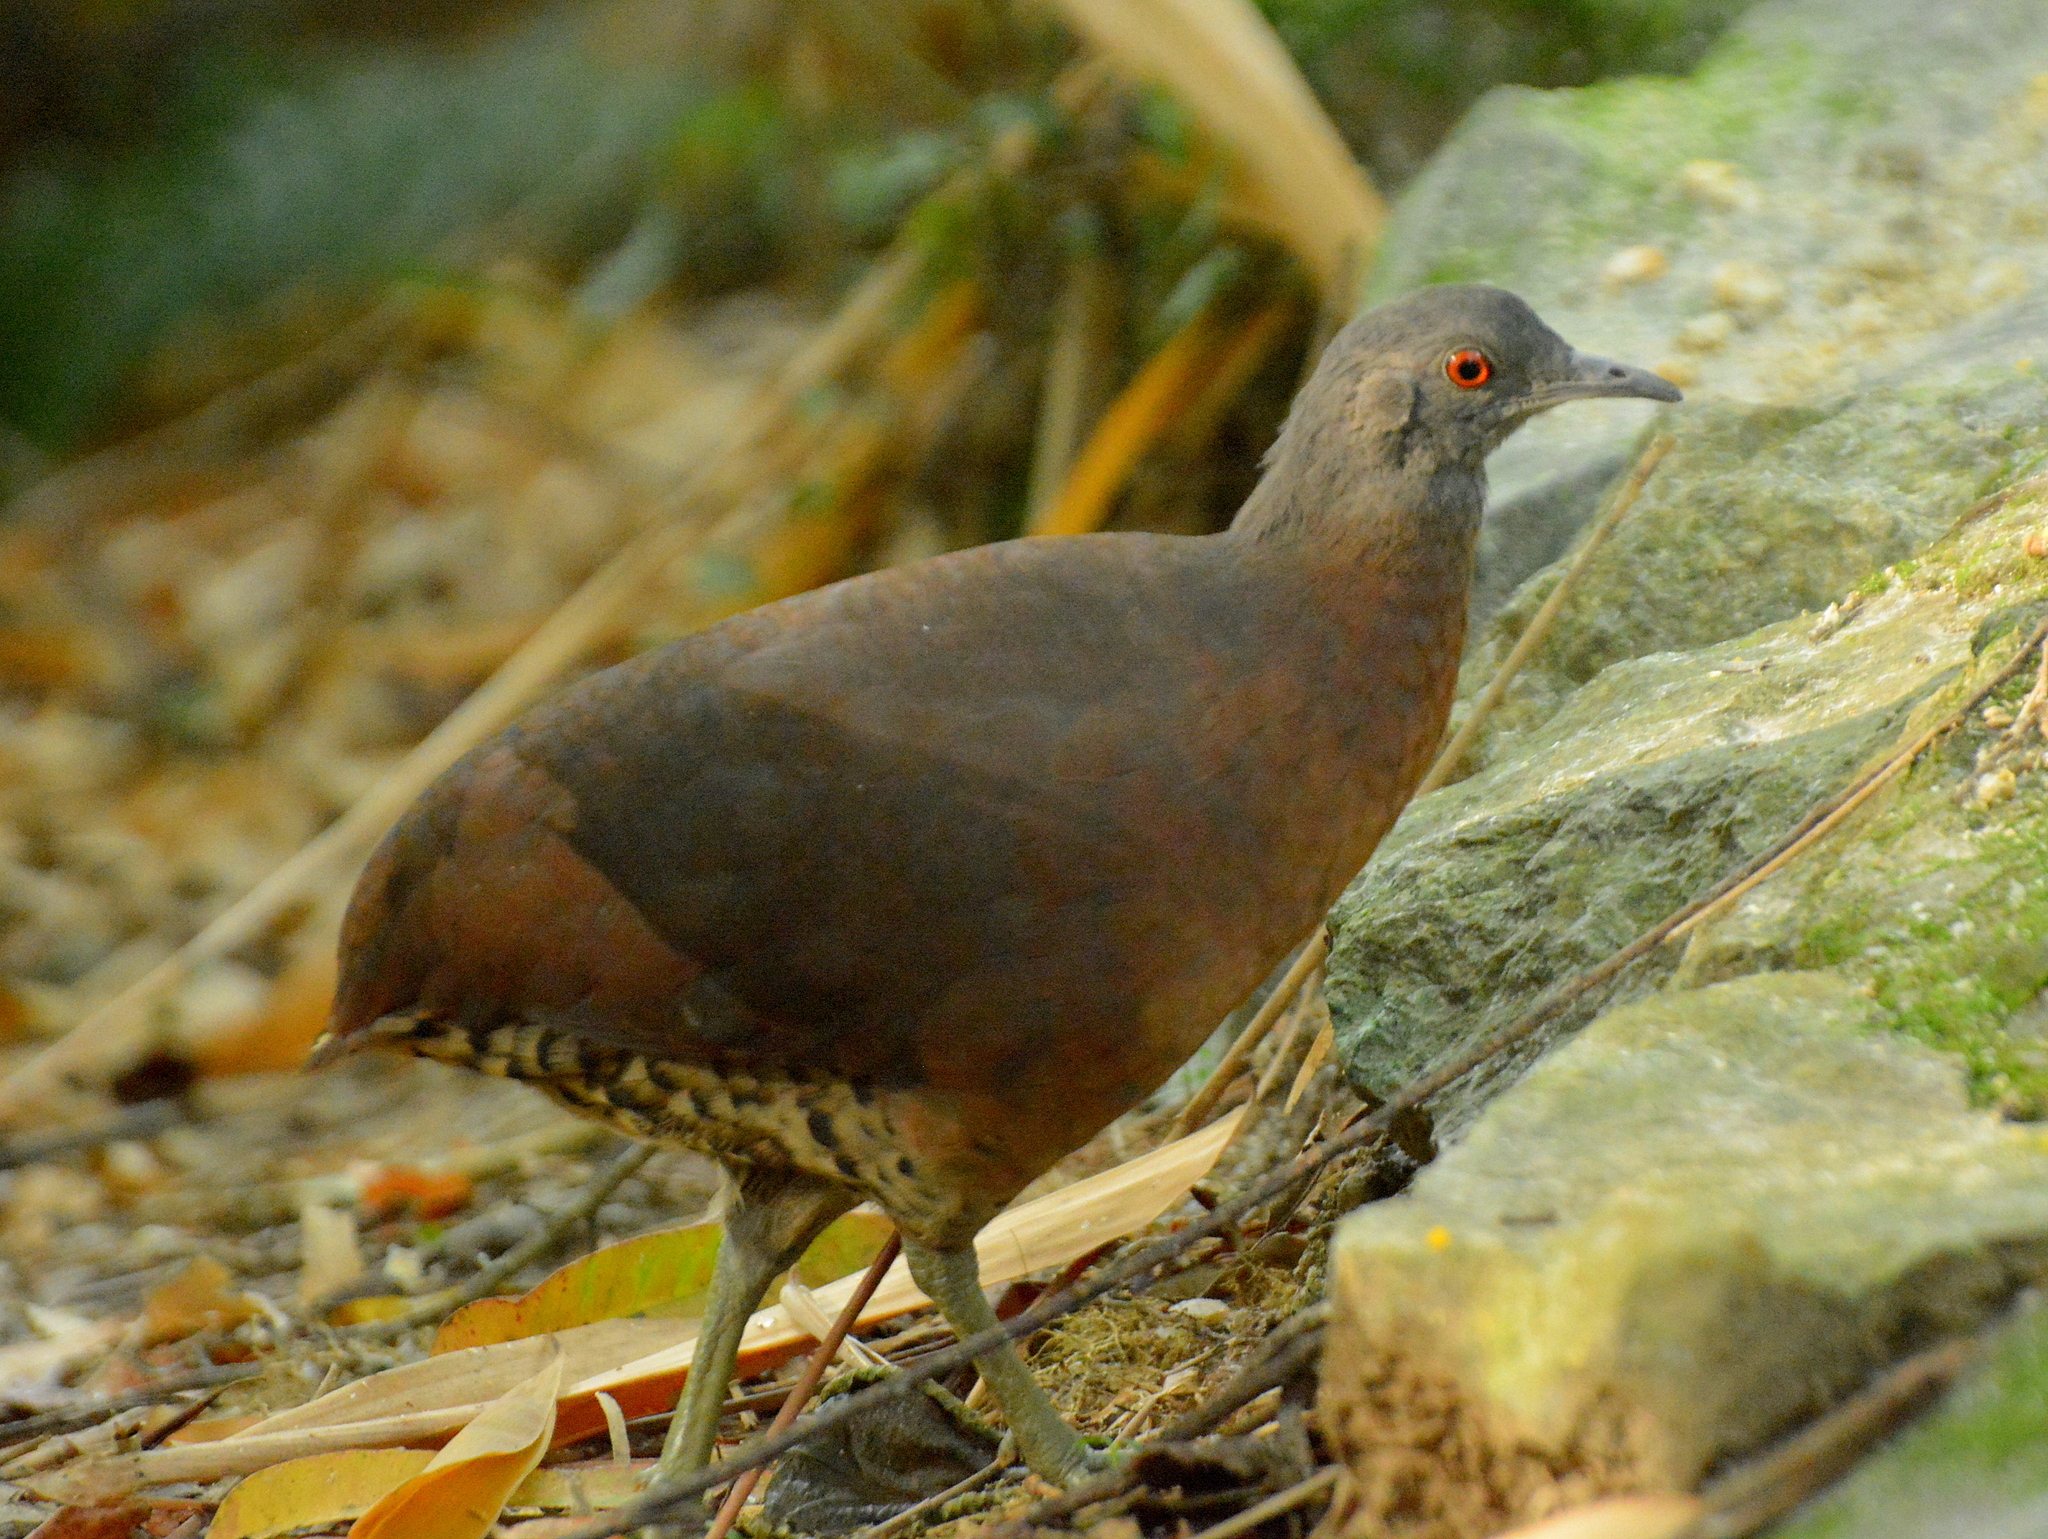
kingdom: Animalia
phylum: Chordata
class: Aves
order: Tinamiformes
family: Tinamidae
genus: Crypturellus
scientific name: Crypturellus obsoletus
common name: Brown tinamou
